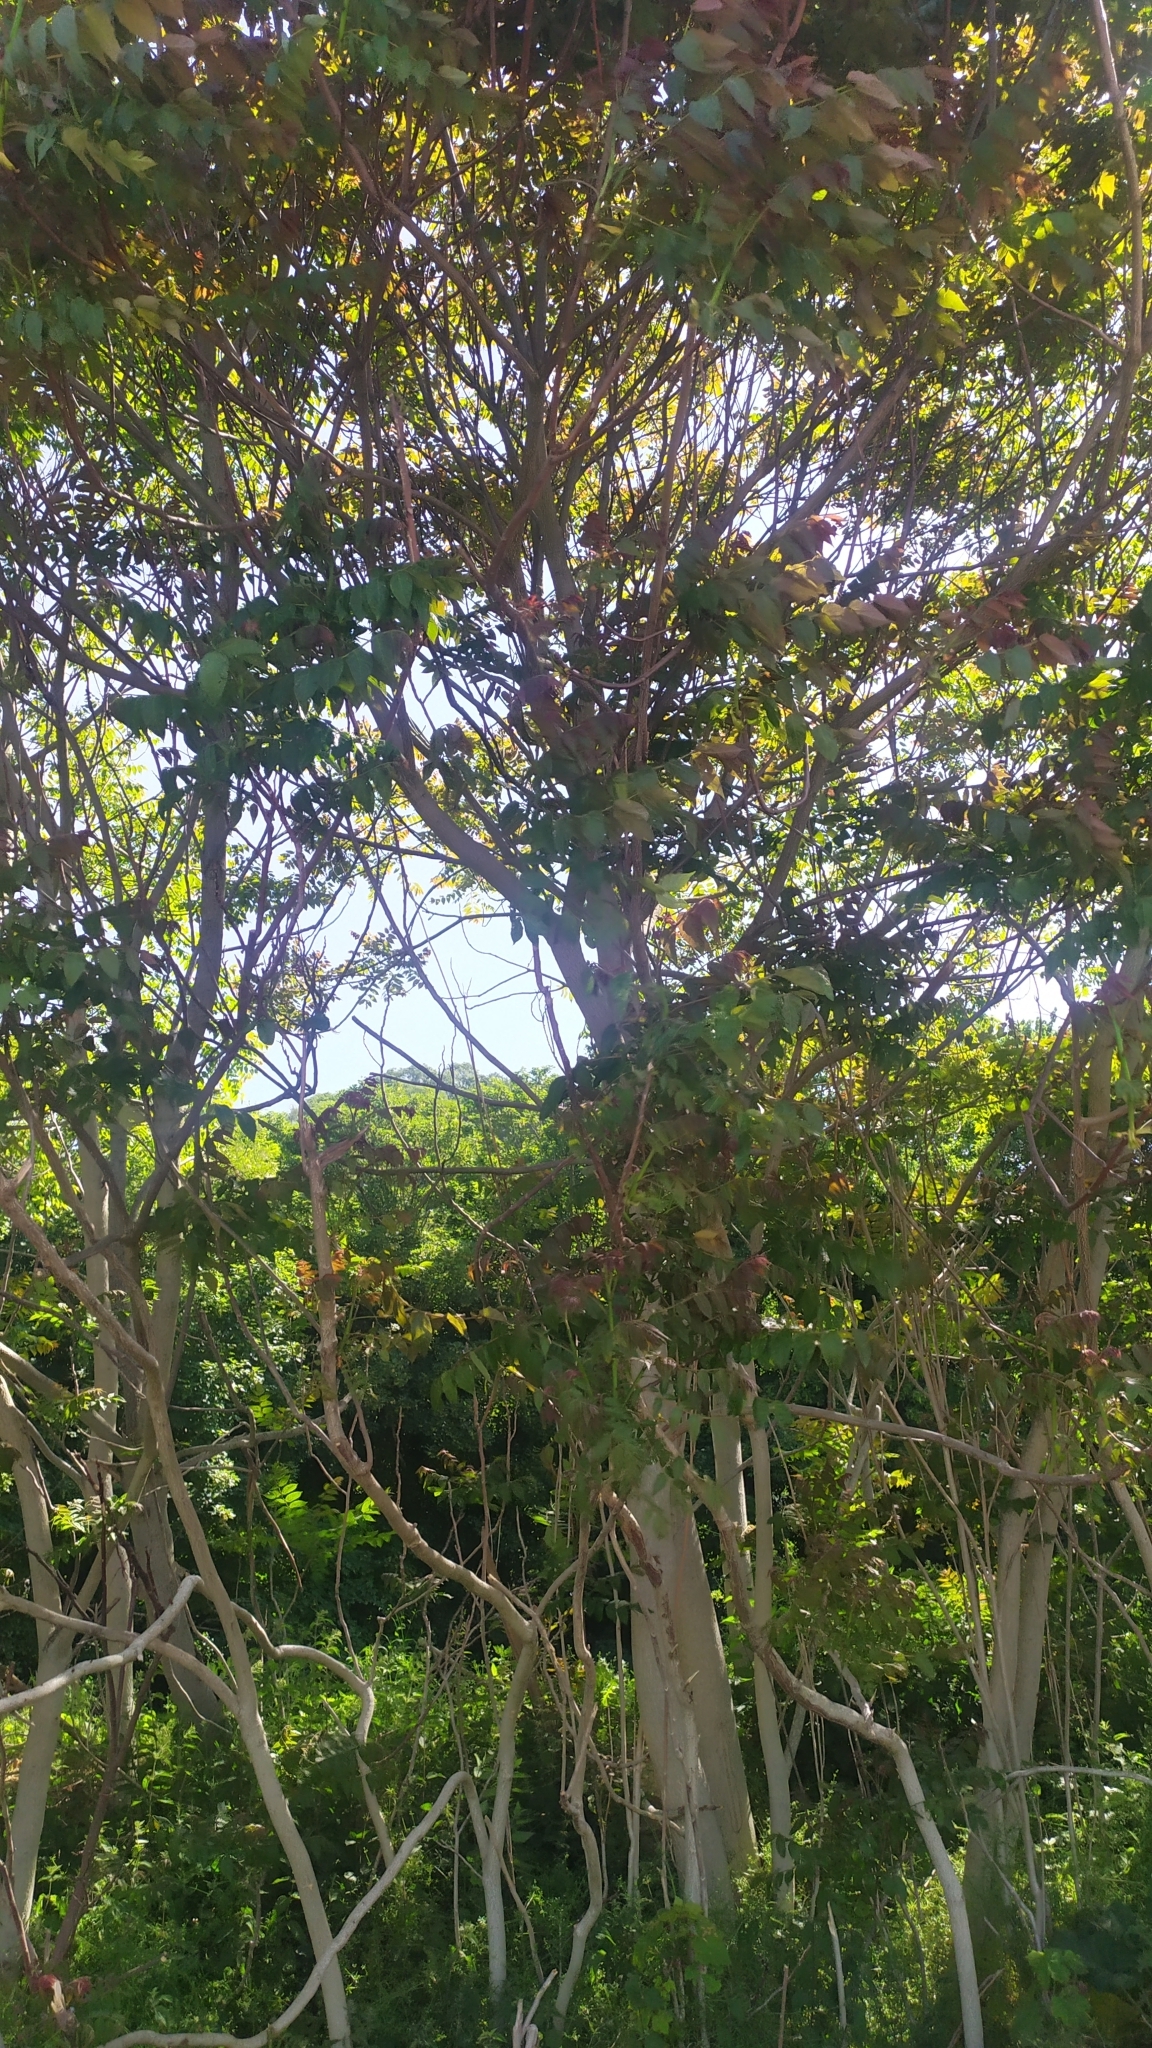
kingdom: Plantae
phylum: Tracheophyta
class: Magnoliopsida
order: Sapindales
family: Simaroubaceae
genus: Ailanthus
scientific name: Ailanthus altissima
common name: Tree-of-heaven
